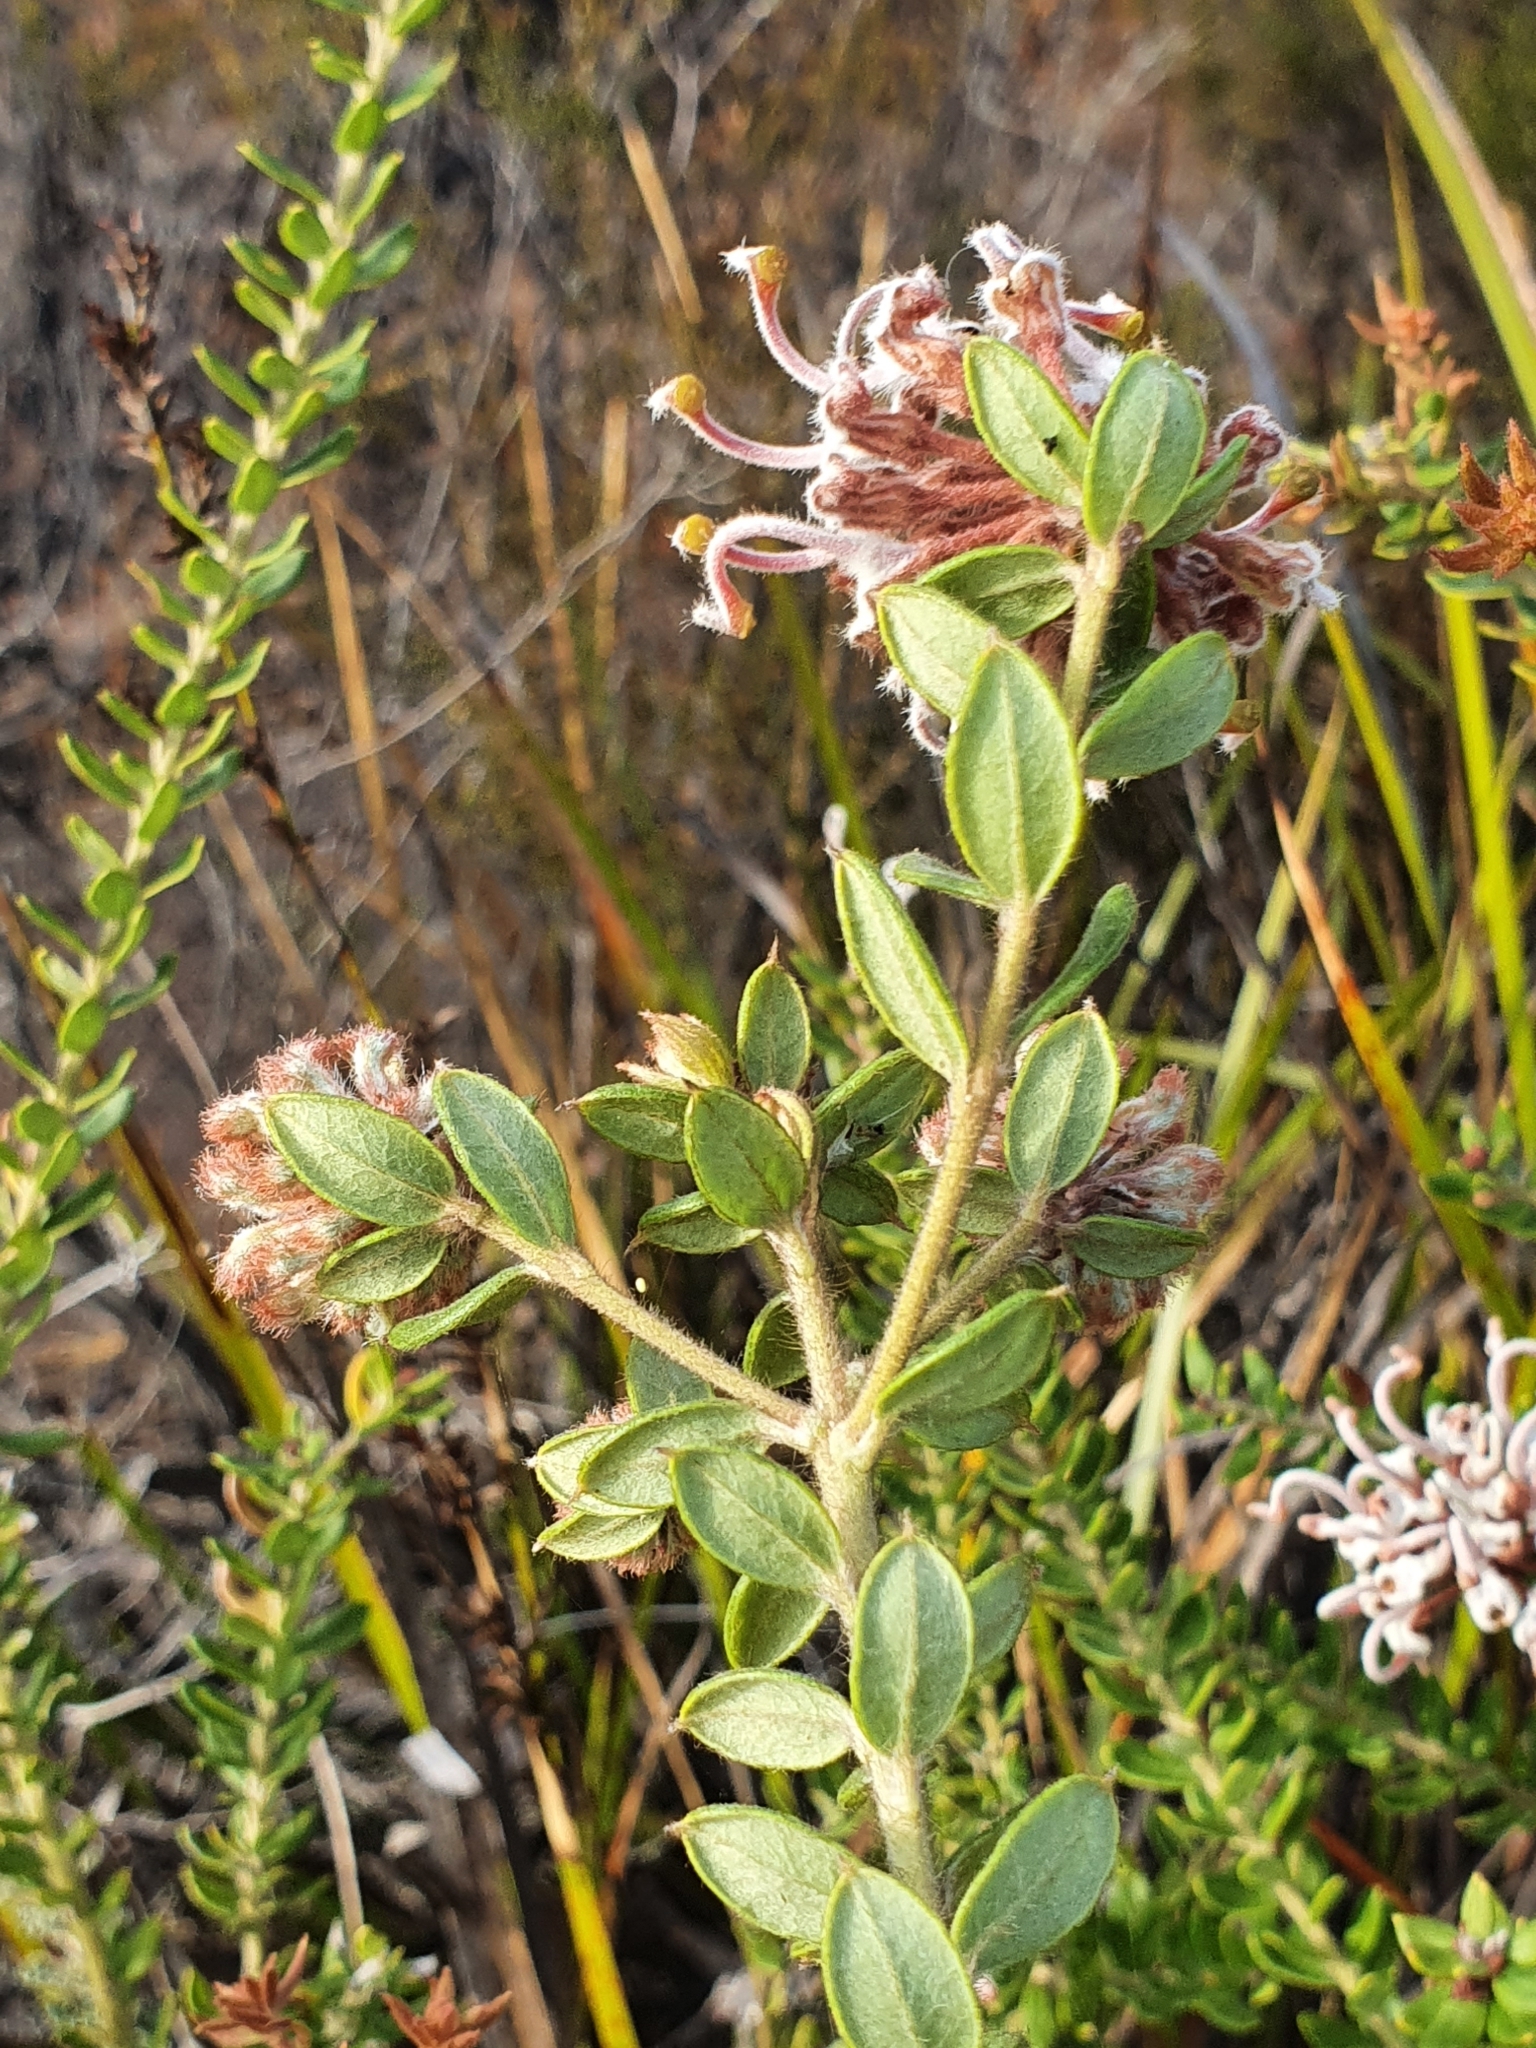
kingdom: Plantae
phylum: Tracheophyta
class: Magnoliopsida
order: Proteales
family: Proteaceae
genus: Grevillea
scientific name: Grevillea buxifolia
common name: Grey spiderflower
